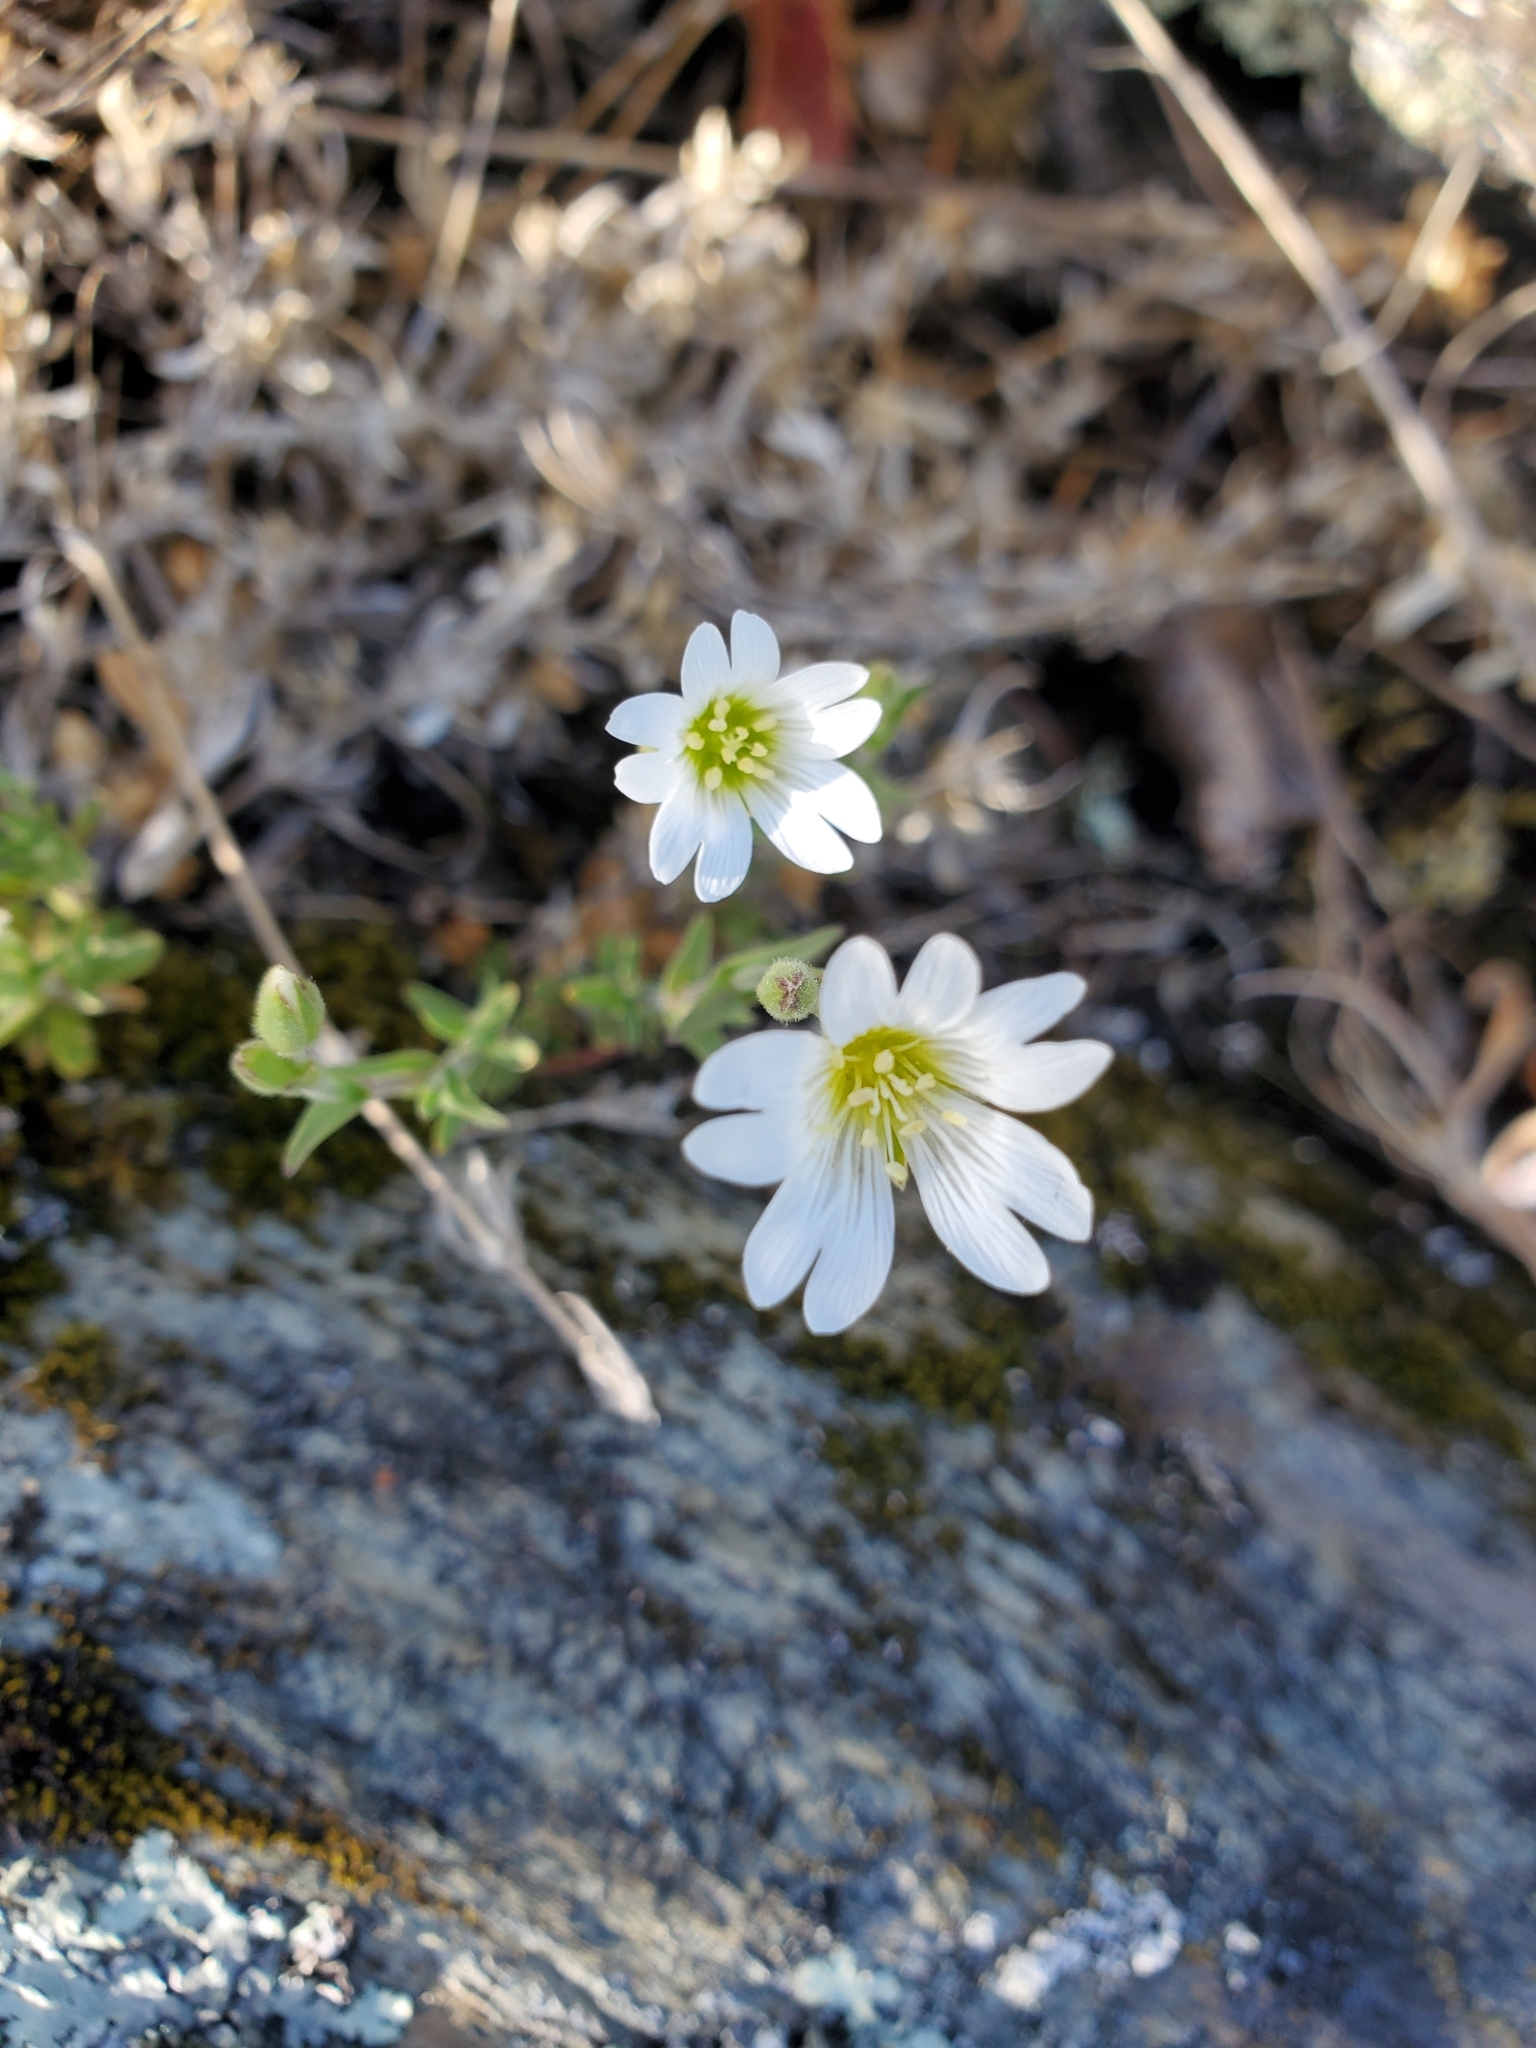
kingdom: Plantae
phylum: Tracheophyta
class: Magnoliopsida
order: Caryophyllales
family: Caryophyllaceae
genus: Cerastium
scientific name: Cerastium arvense
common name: Field mouse-ear
